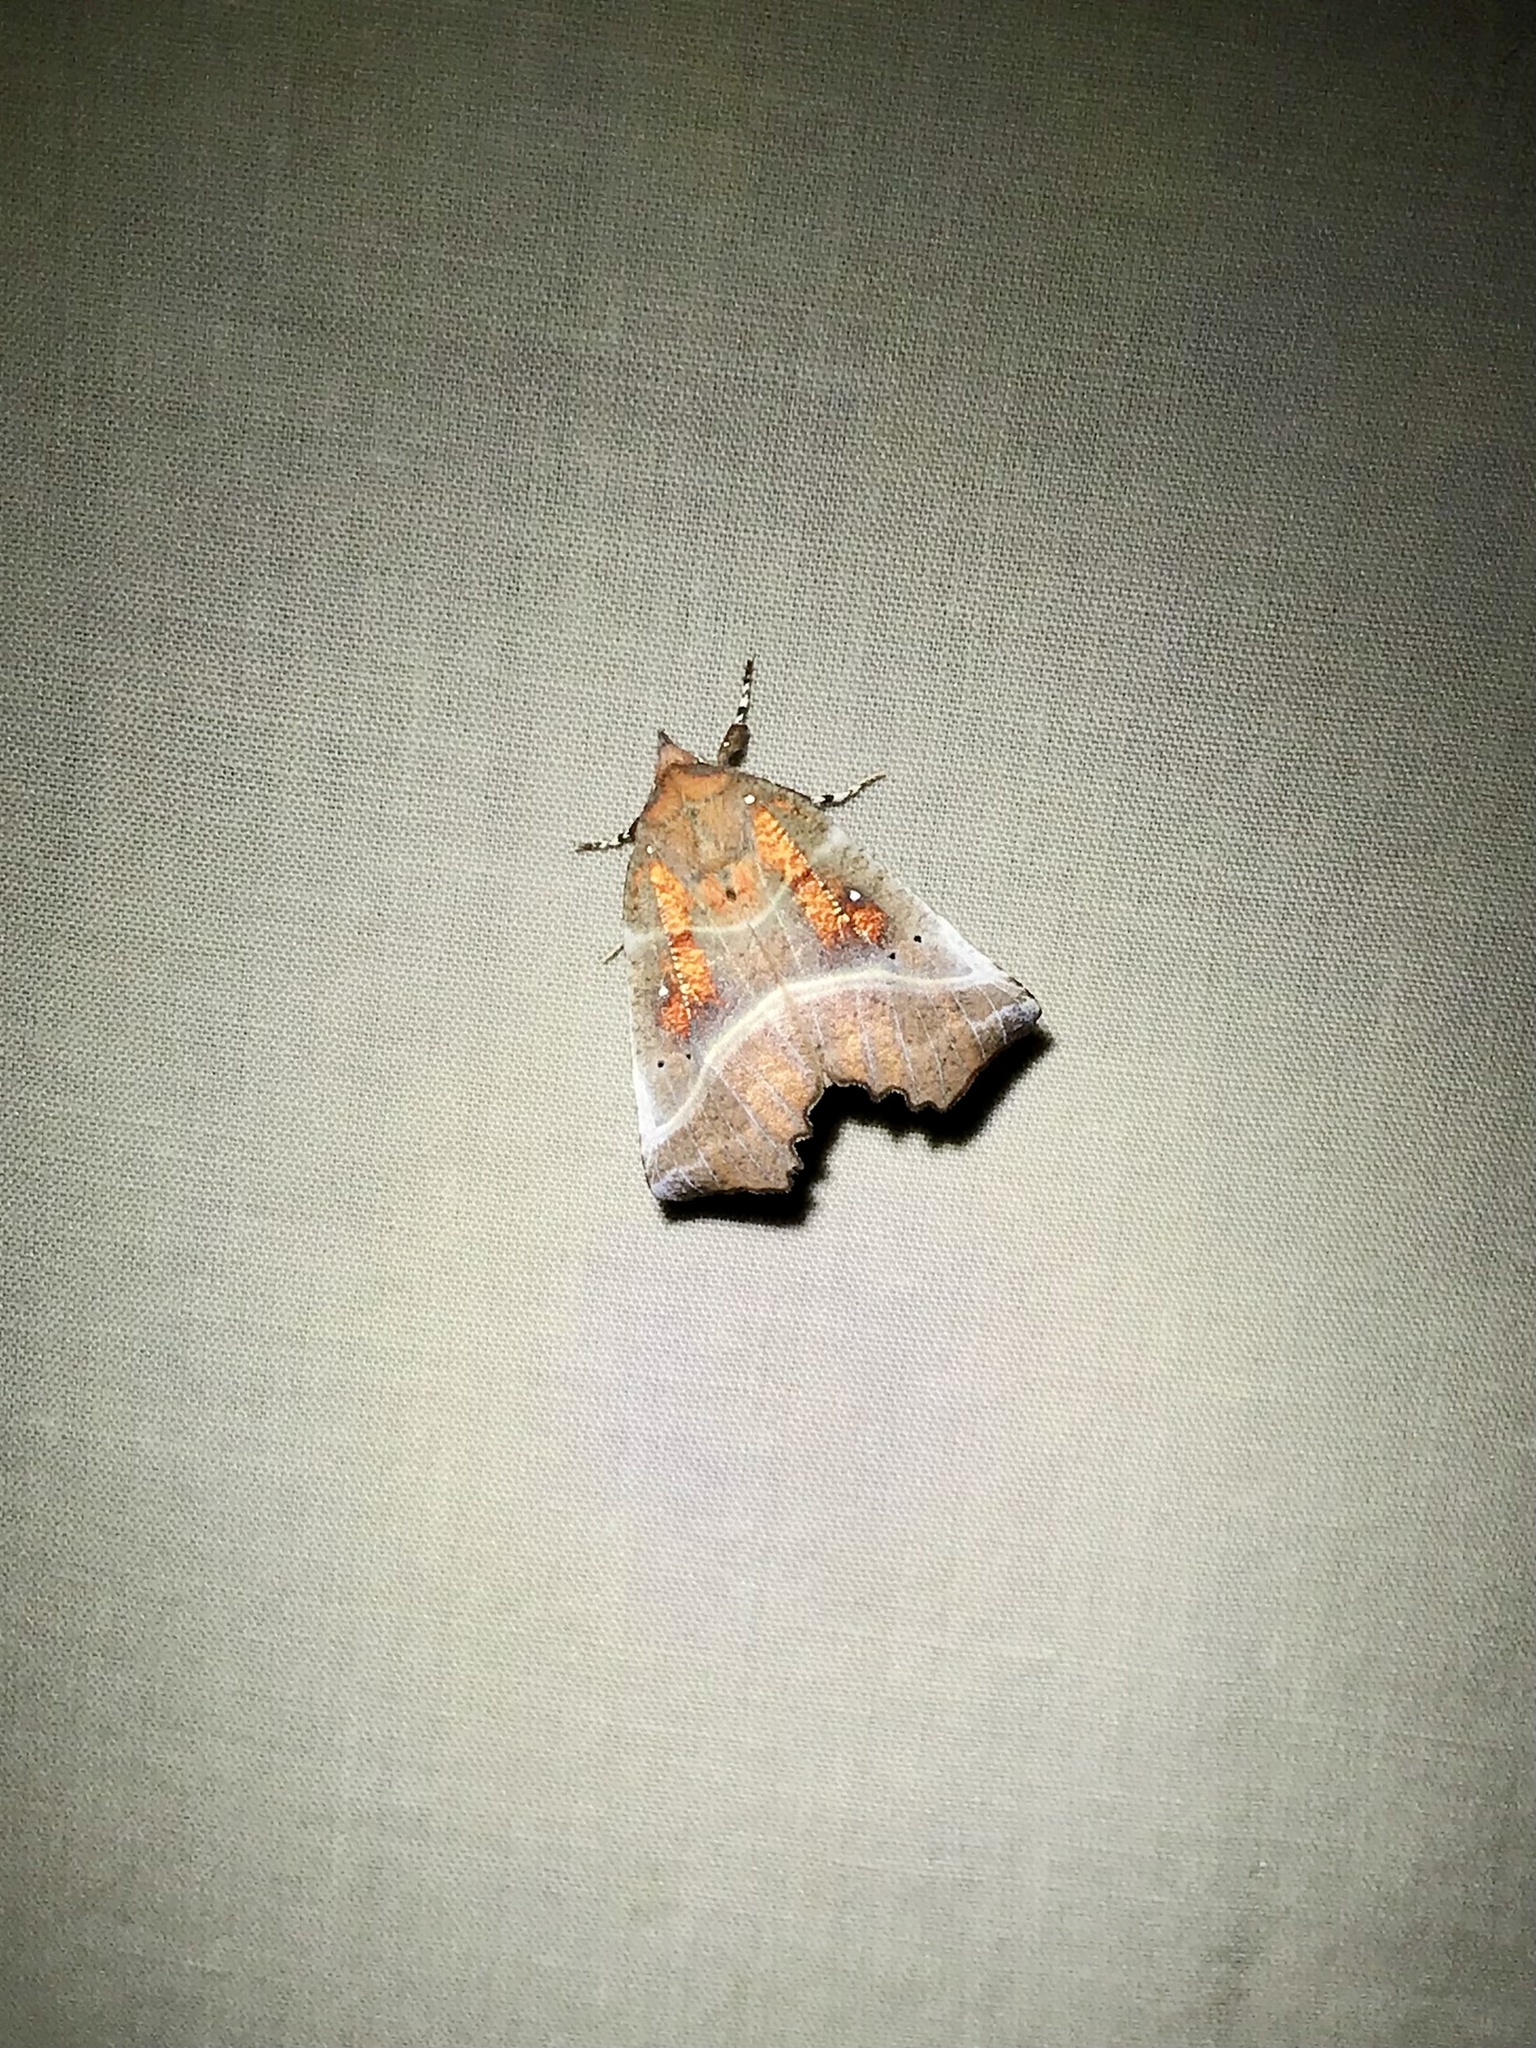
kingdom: Animalia
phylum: Arthropoda
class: Insecta
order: Lepidoptera
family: Erebidae
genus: Scoliopteryx
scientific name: Scoliopteryx libatrix
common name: Herald
